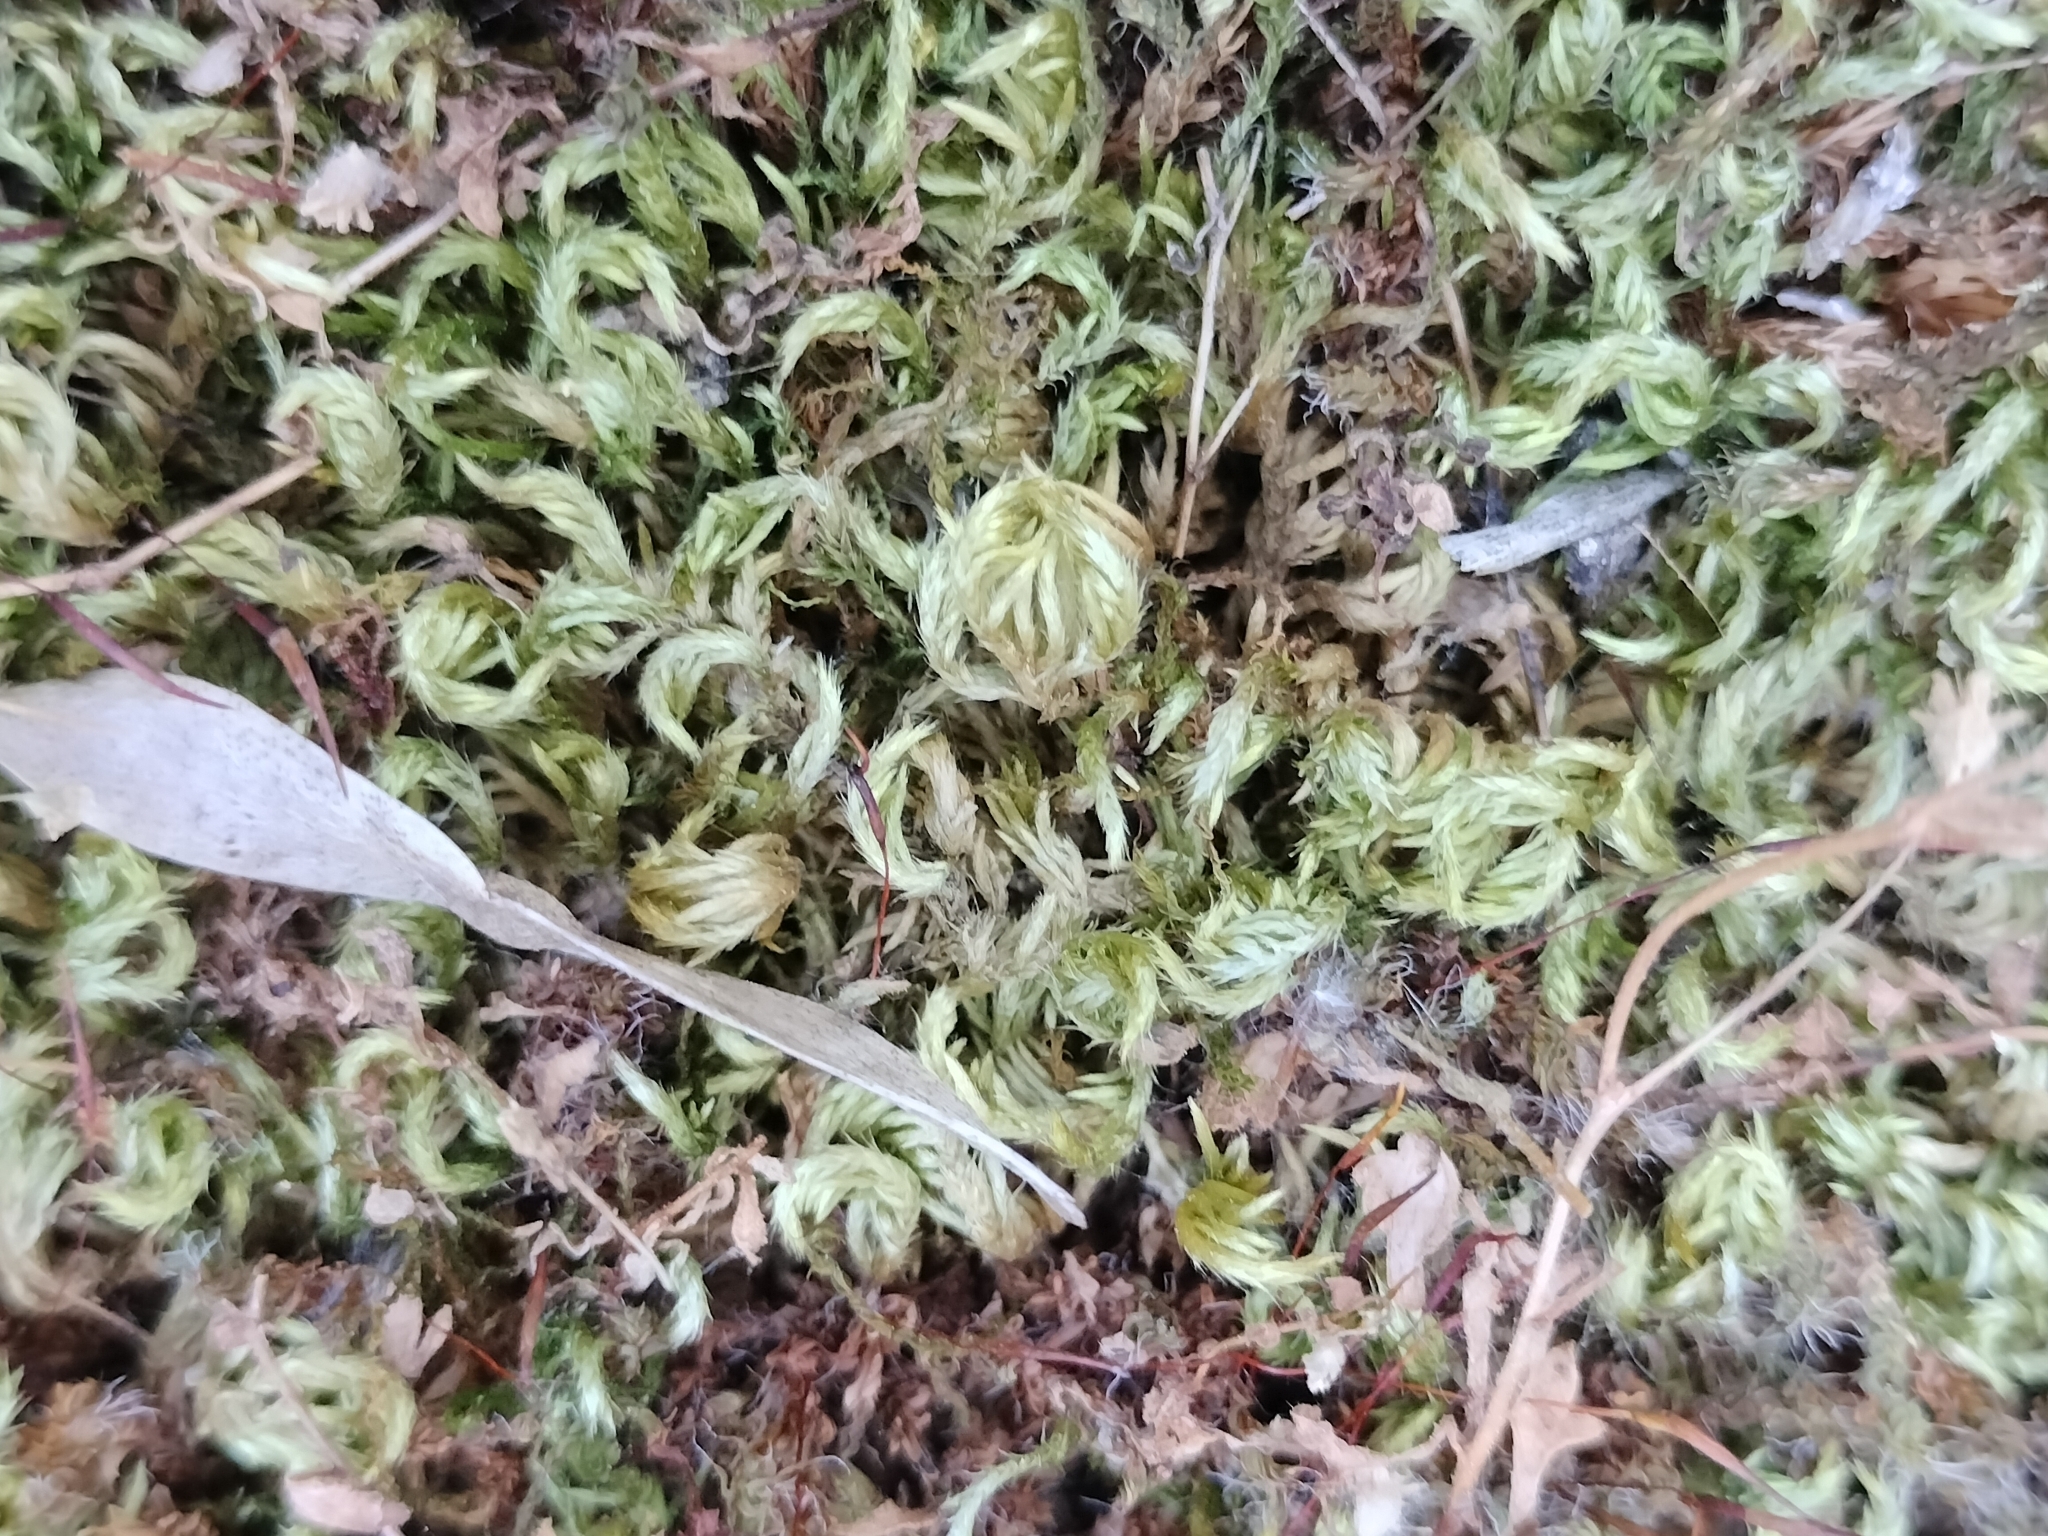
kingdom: Plantae
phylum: Bryophyta
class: Bryopsida
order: Hypnales
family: Brachytheciaceae
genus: Homalothecium
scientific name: Homalothecium aureum
